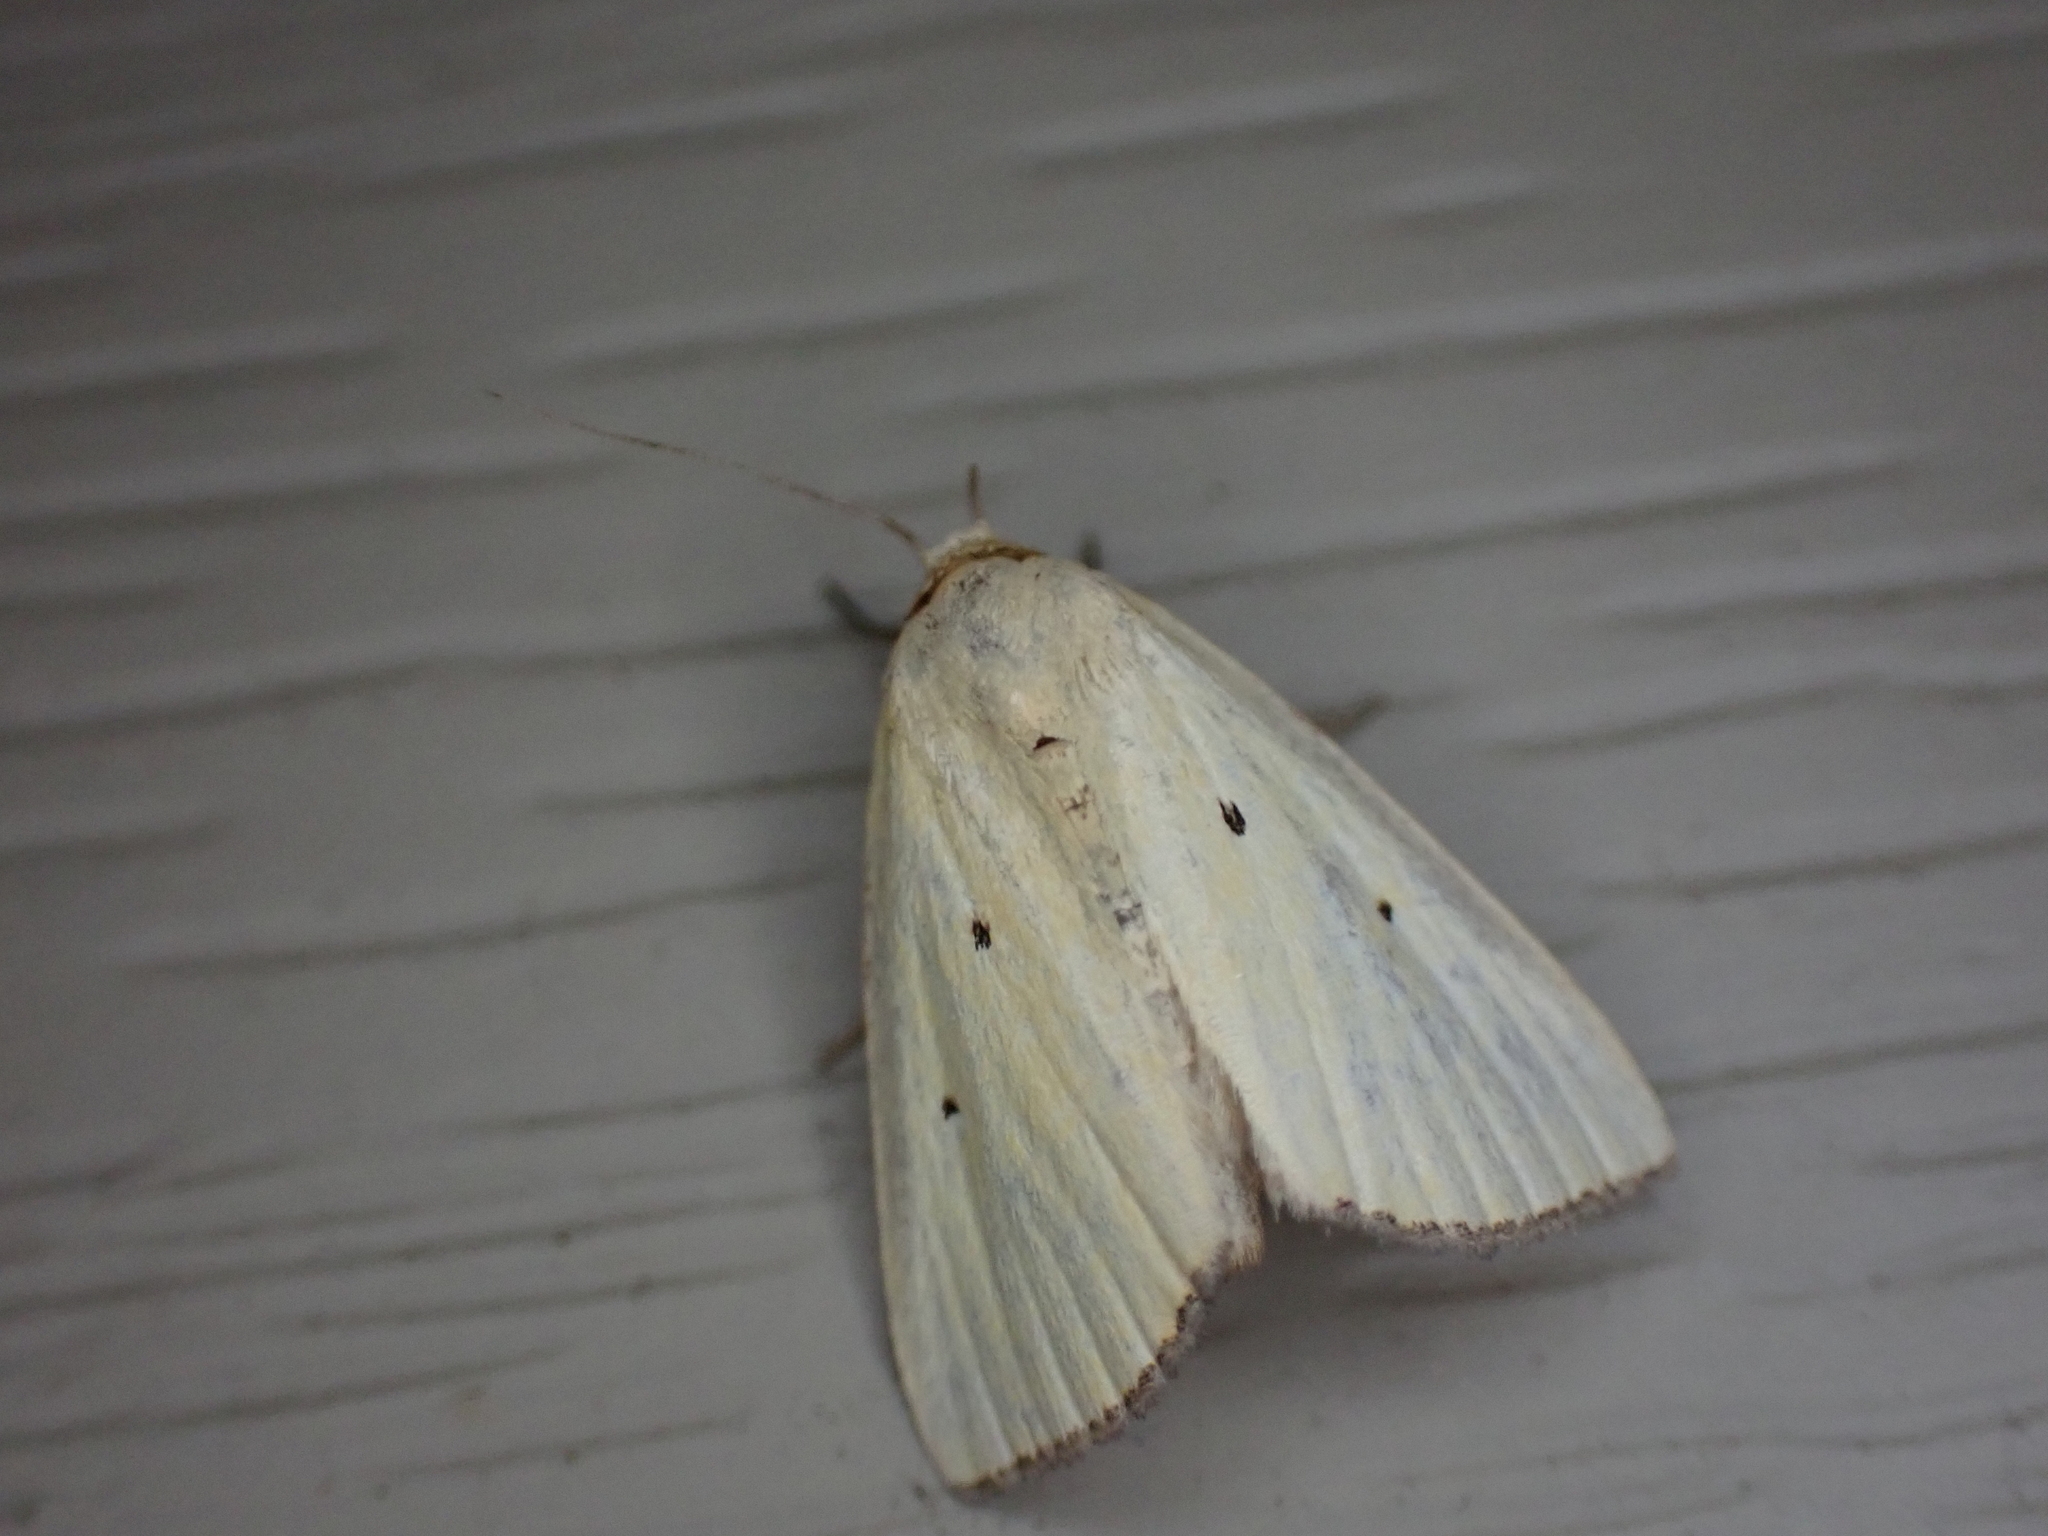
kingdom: Animalia
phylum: Arthropoda
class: Insecta
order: Lepidoptera
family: Noctuidae
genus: Marimatha
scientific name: Marimatha nigrofimbria
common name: Black-bordered lemon moth
